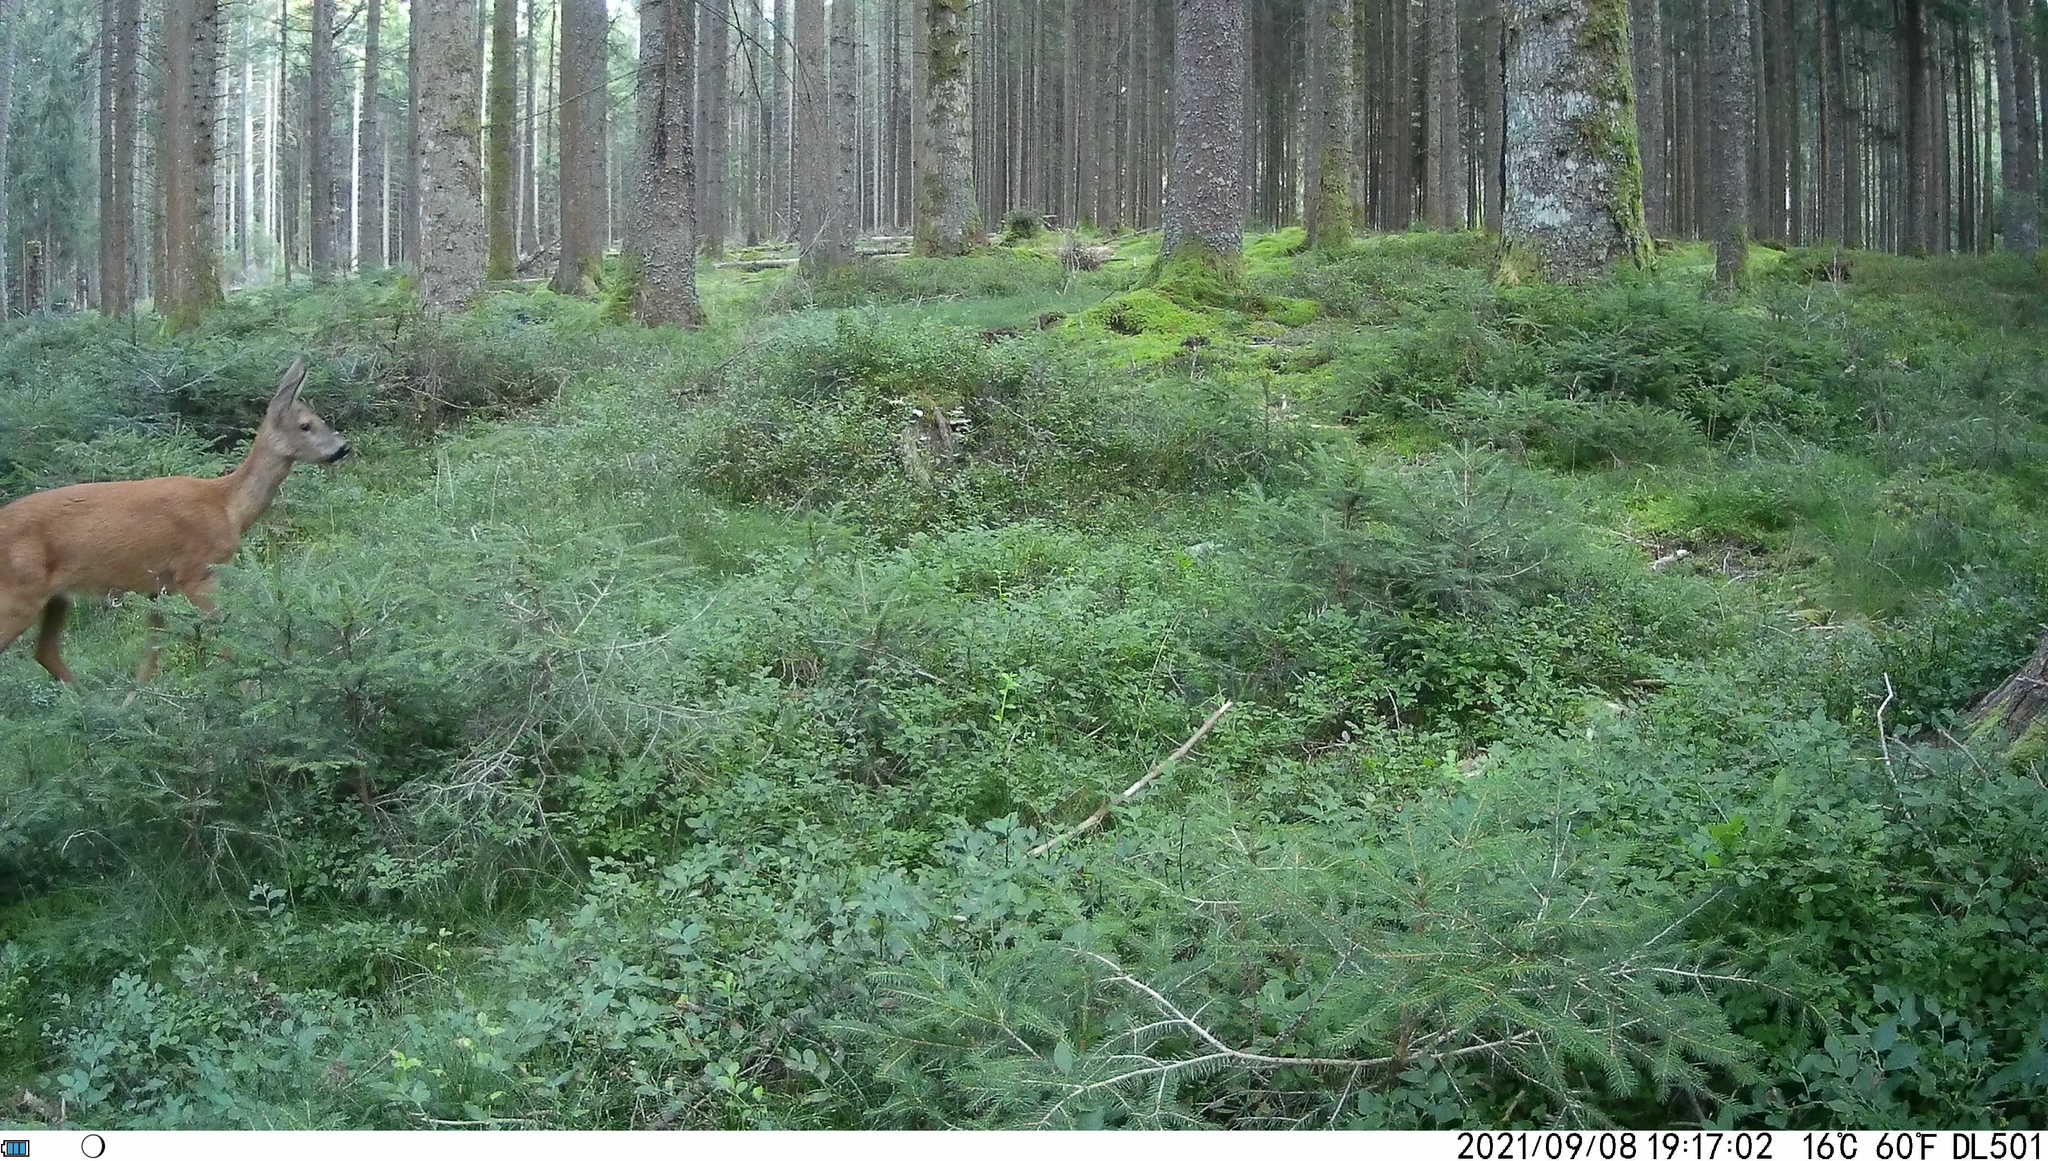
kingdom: Animalia
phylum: Chordata
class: Mammalia
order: Artiodactyla
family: Cervidae
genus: Capreolus
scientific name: Capreolus capreolus
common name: Western roe deer
